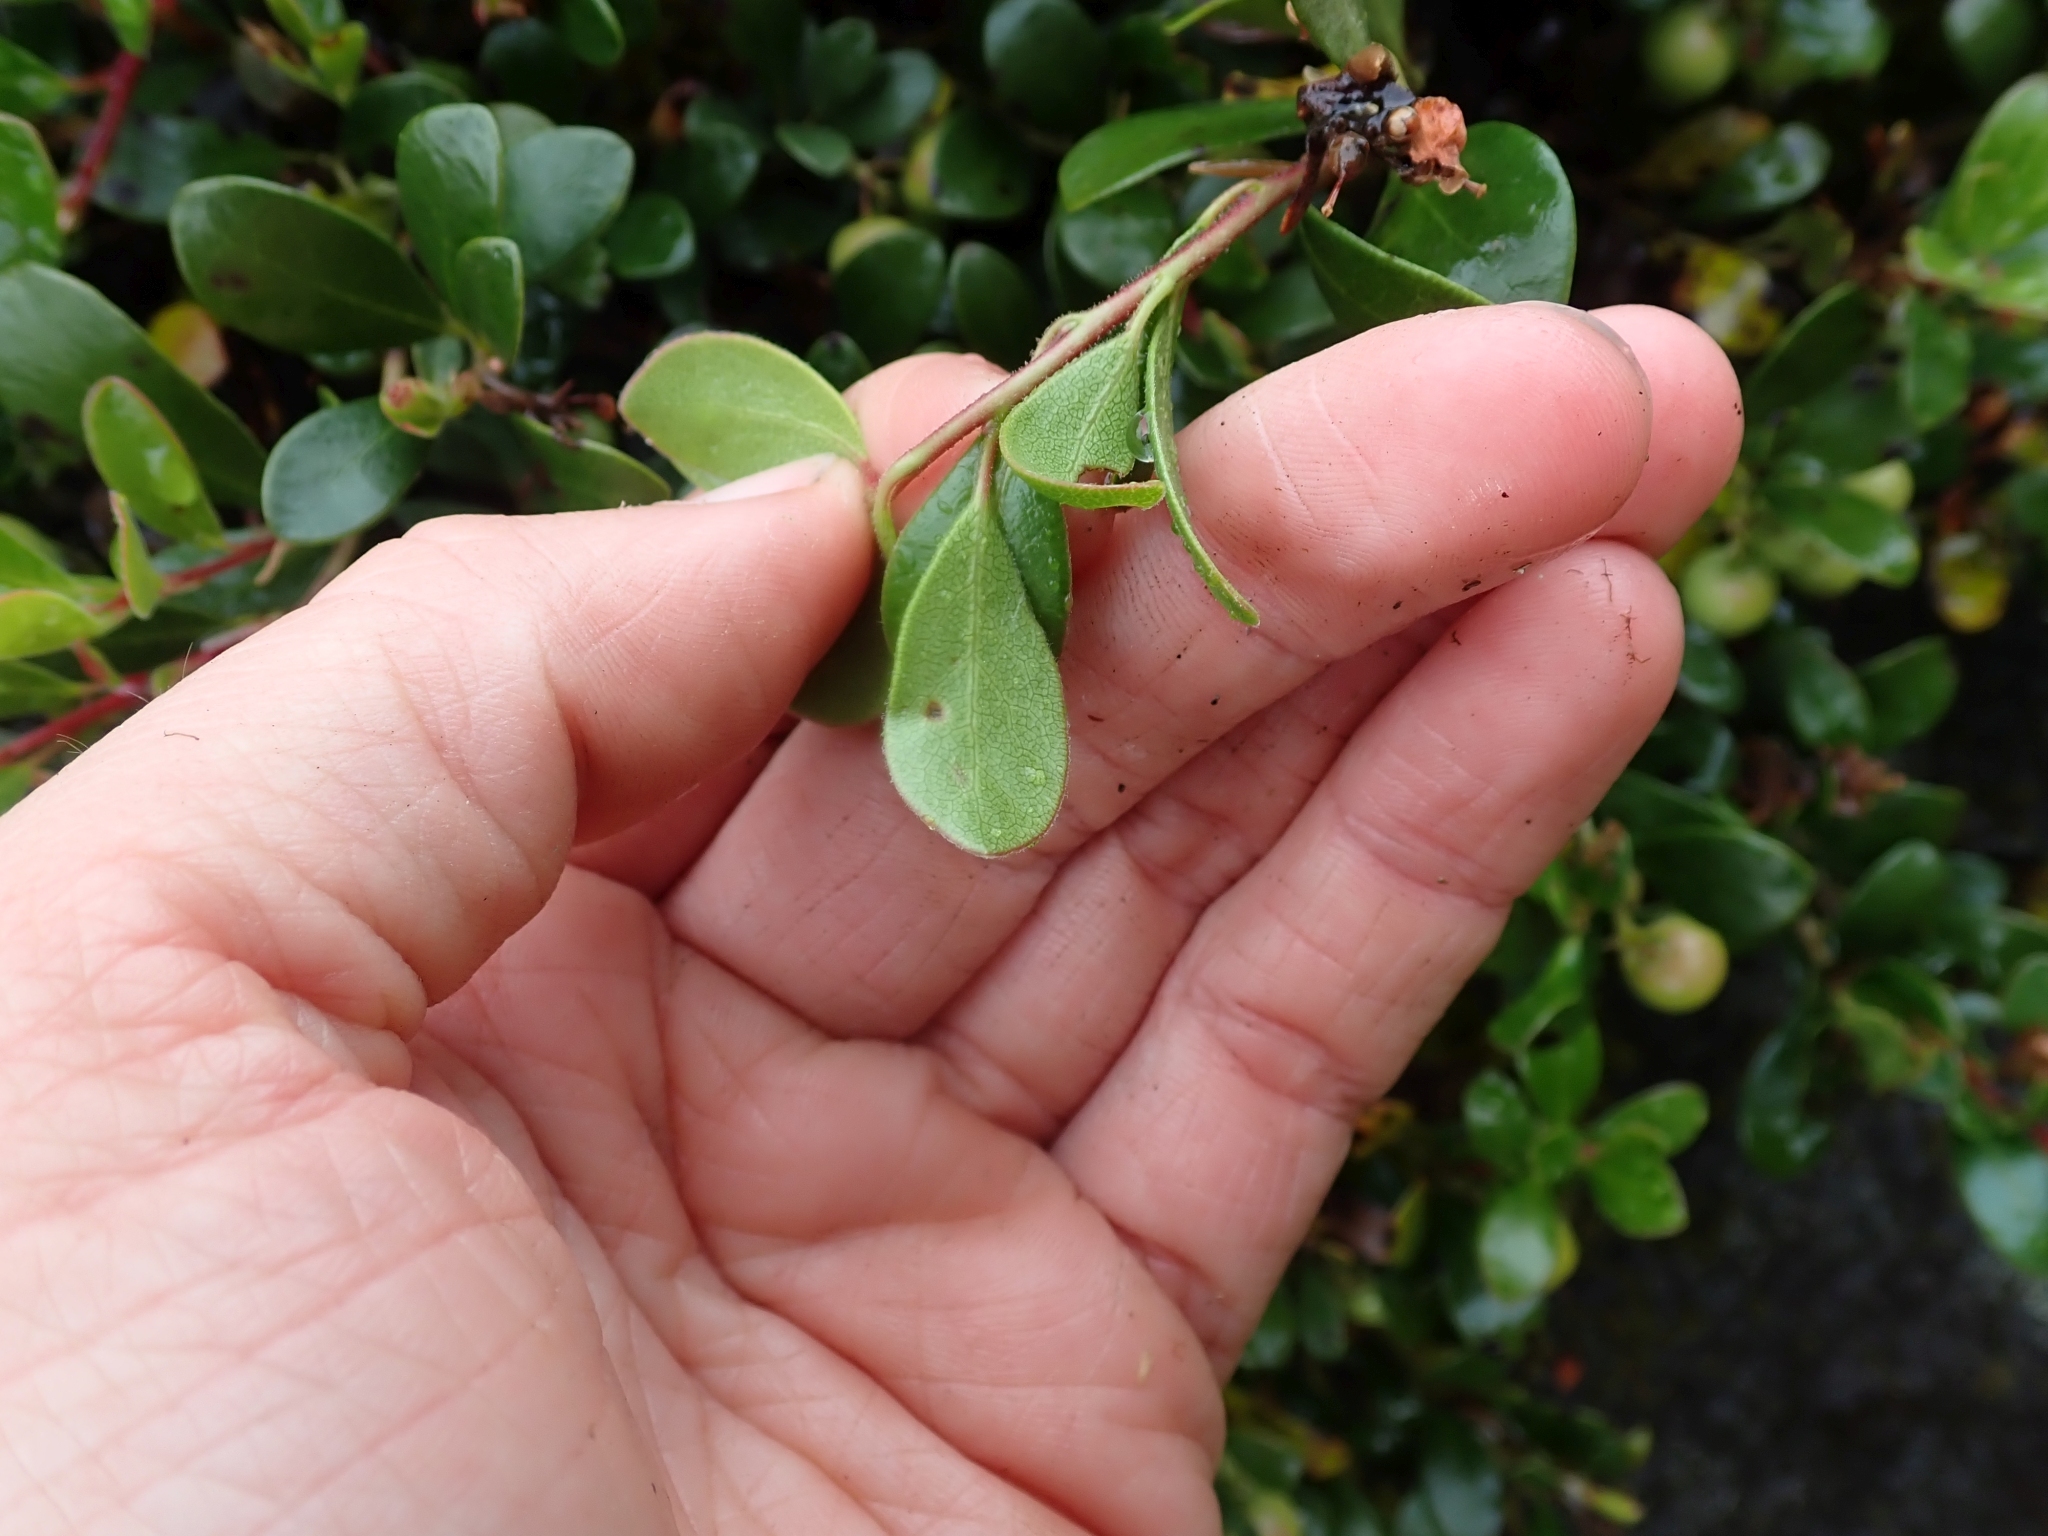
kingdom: Plantae
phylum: Tracheophyta
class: Magnoliopsida
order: Ericales
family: Ericaceae
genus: Arctostaphylos
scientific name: Arctostaphylos uva-ursi
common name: Bearberry
